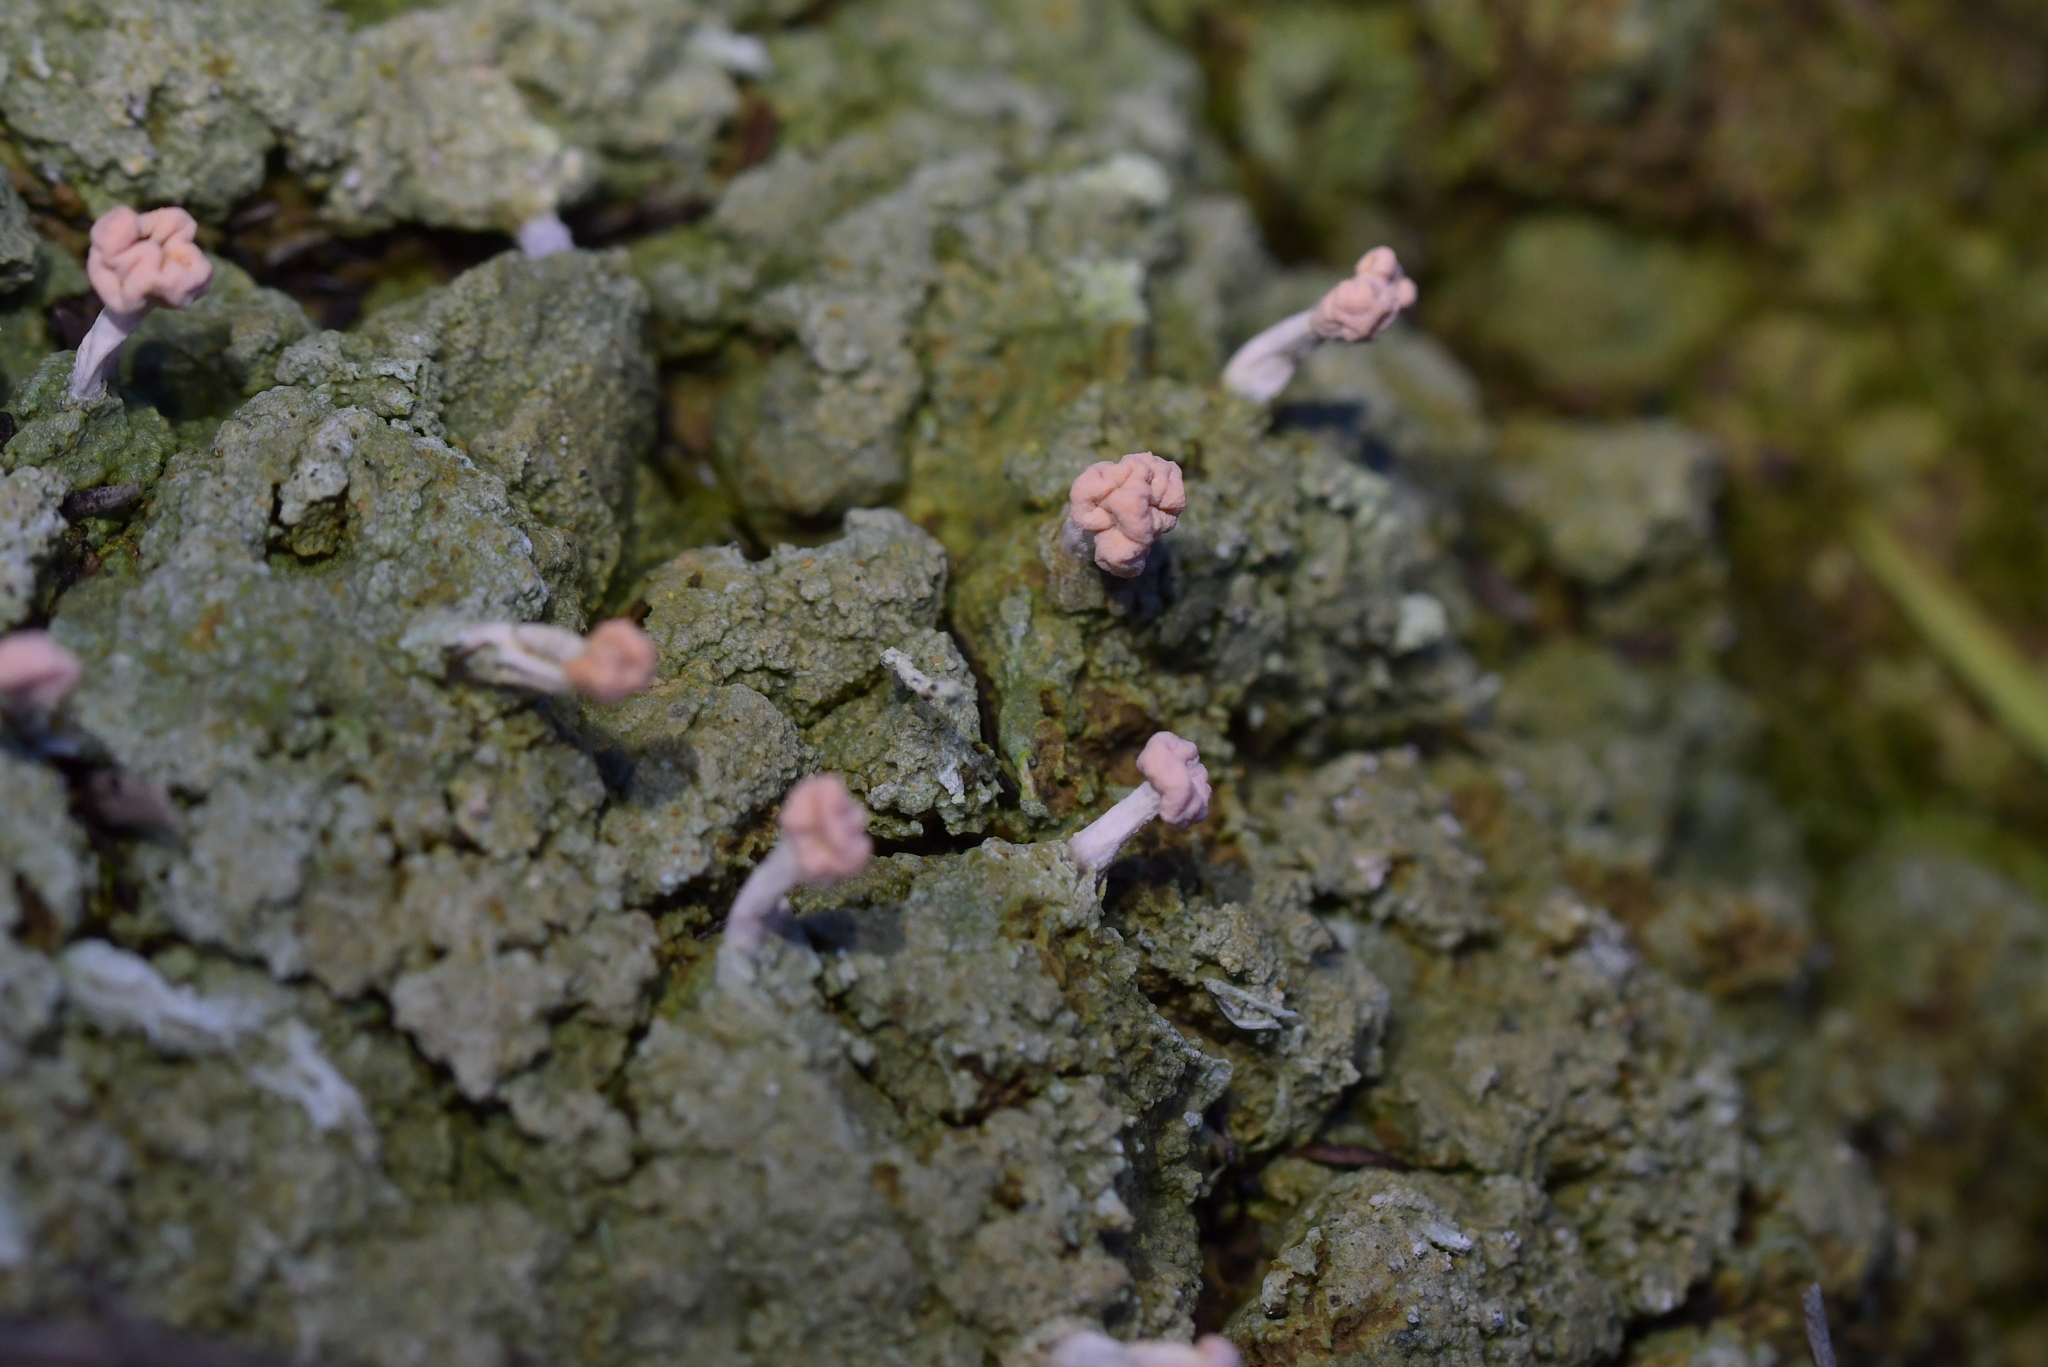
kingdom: Fungi
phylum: Ascomycota
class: Lecanoromycetes
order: Pertusariales
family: Icmadophilaceae
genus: Dibaeis
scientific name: Dibaeis arcuata
